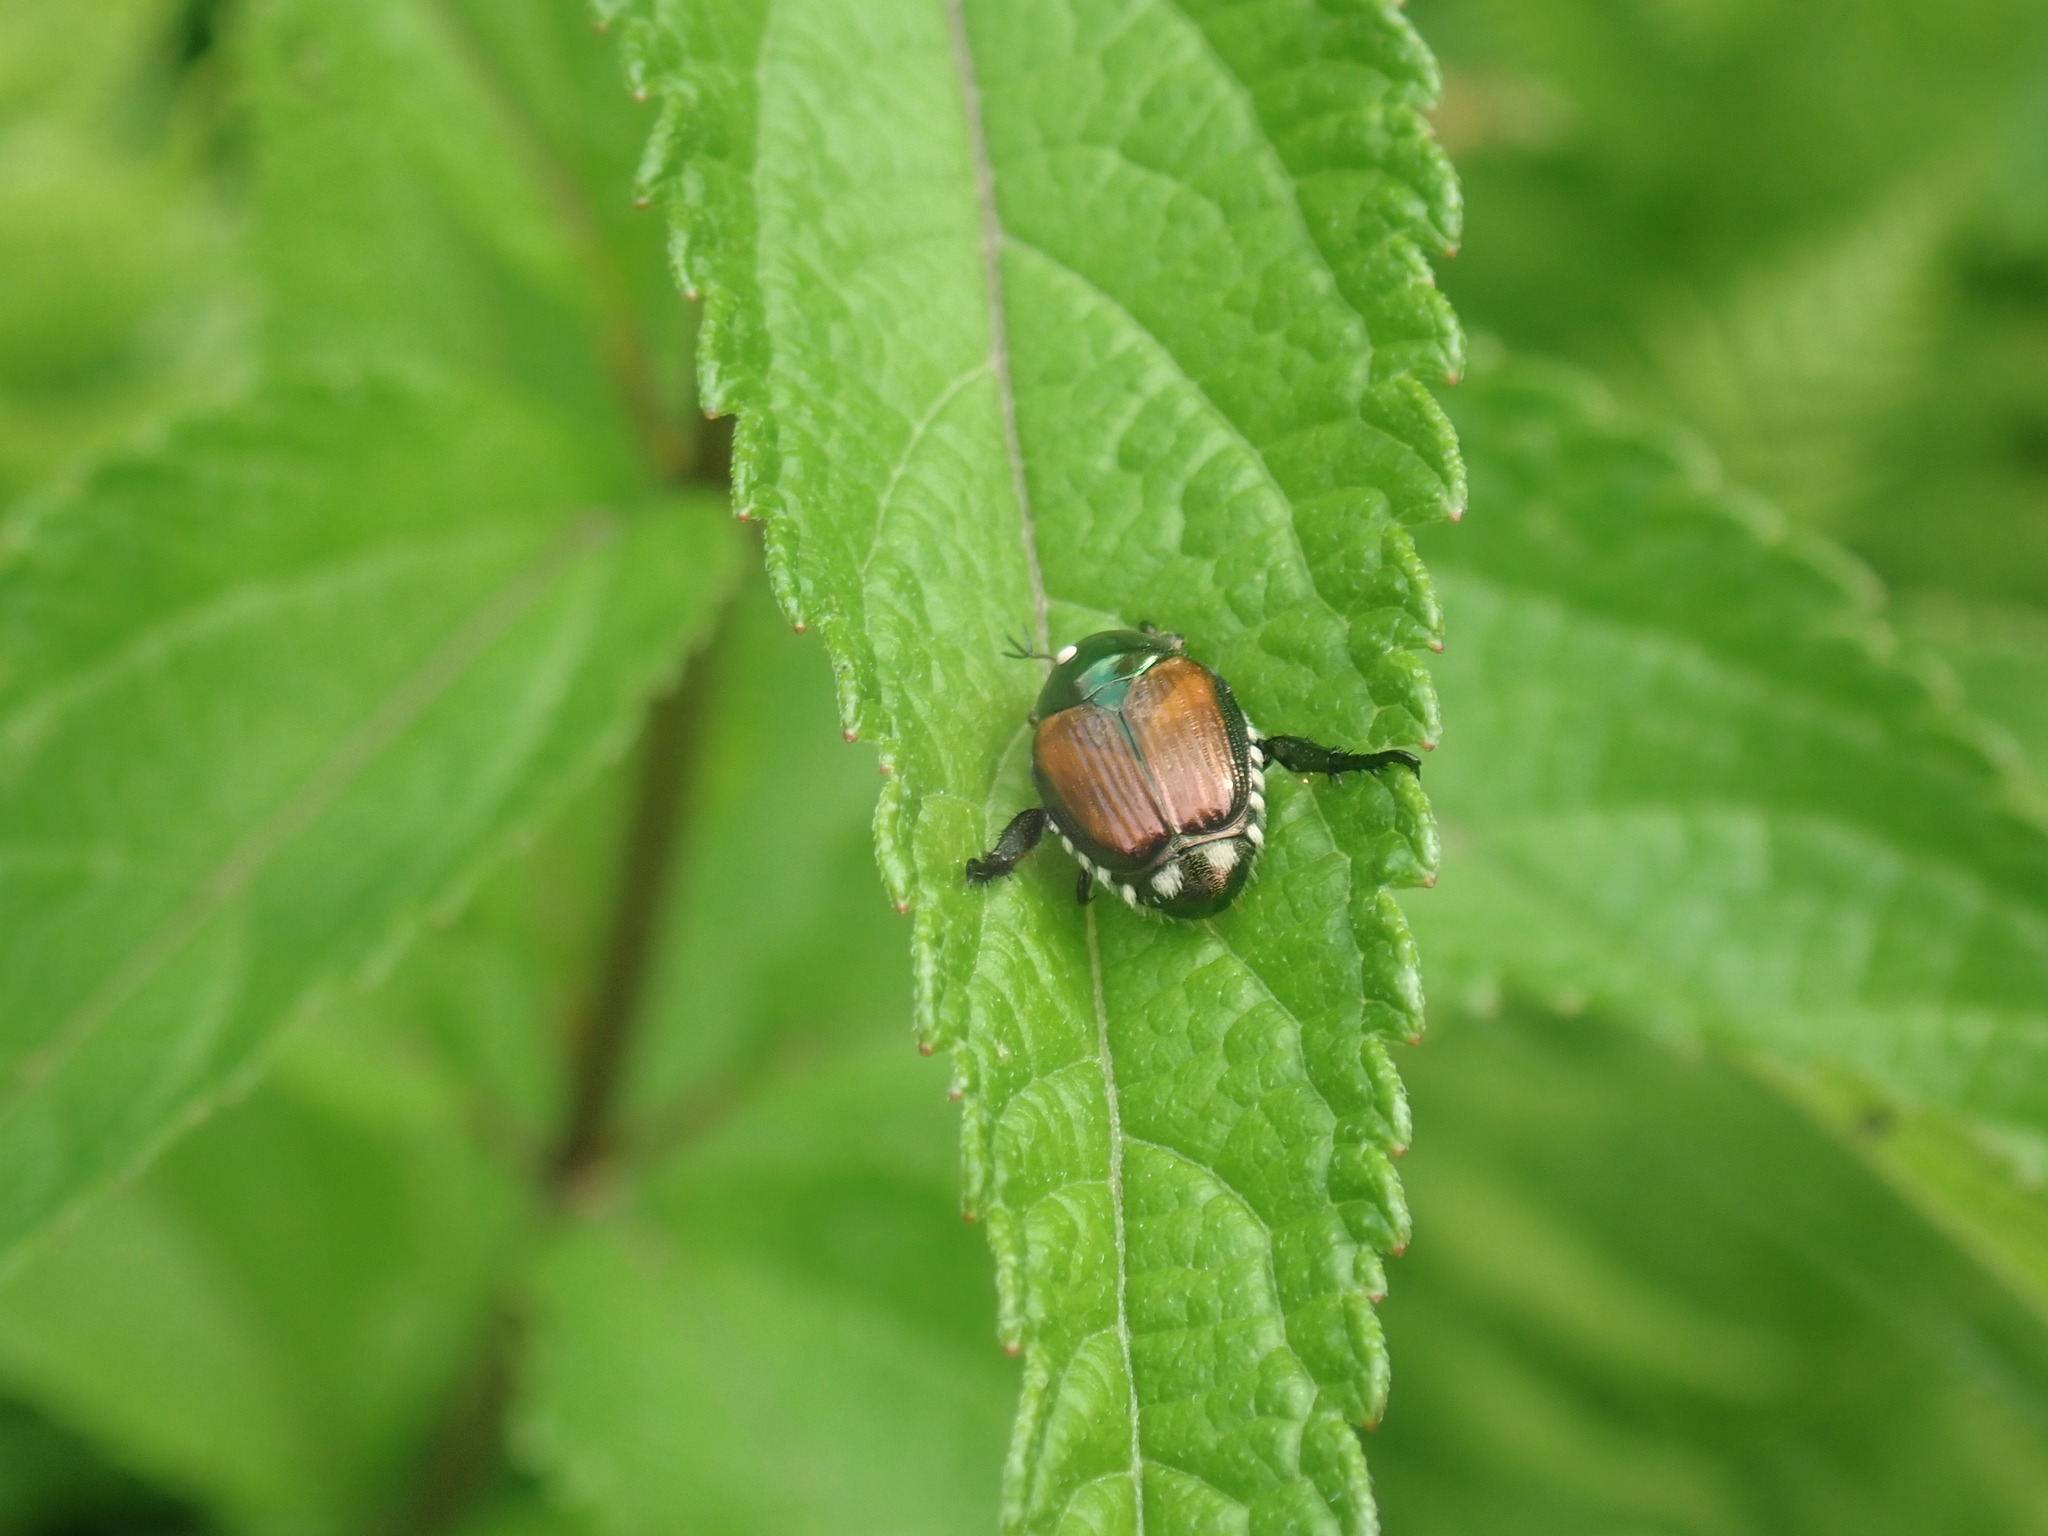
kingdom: Animalia
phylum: Arthropoda
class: Insecta
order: Diptera
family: Tachinidae
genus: Istocheta
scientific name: Istocheta aldrichi
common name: Parasitic wasp
